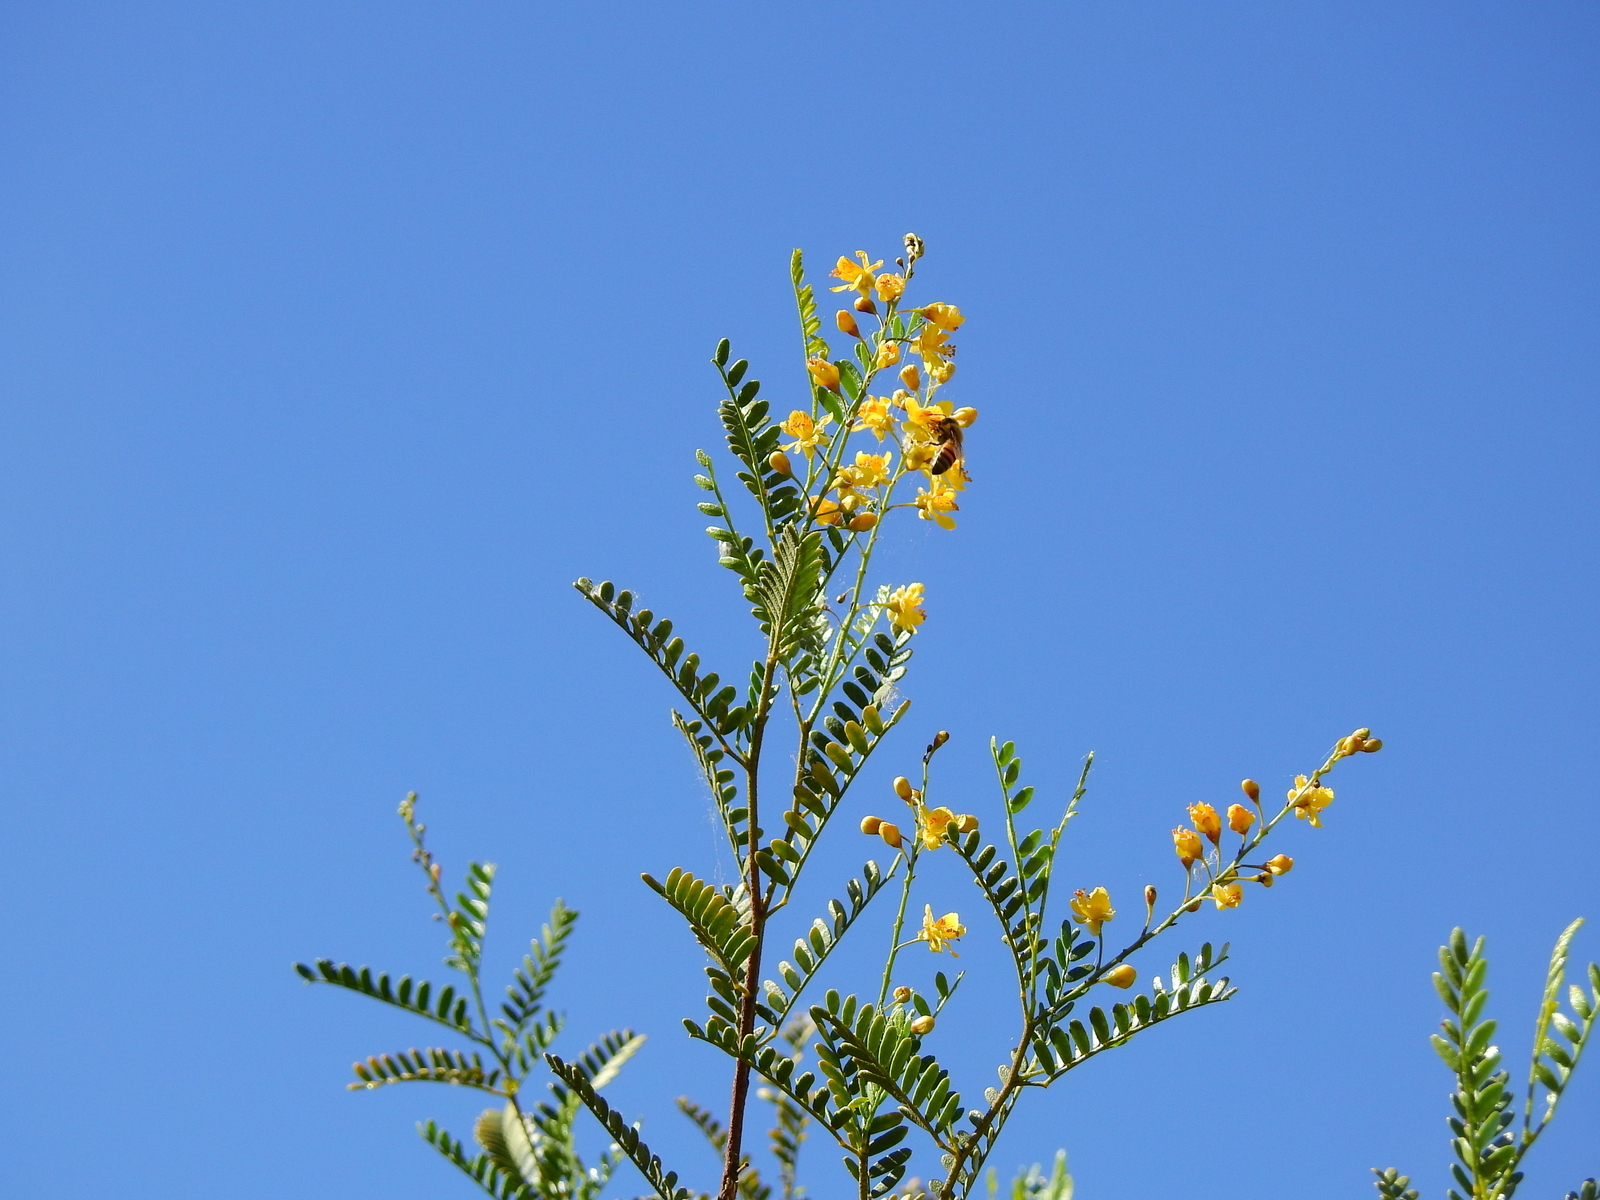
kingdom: Plantae
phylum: Tracheophyta
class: Magnoliopsida
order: Fabales
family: Fabaceae
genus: Zuccagnia
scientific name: Zuccagnia punctata
